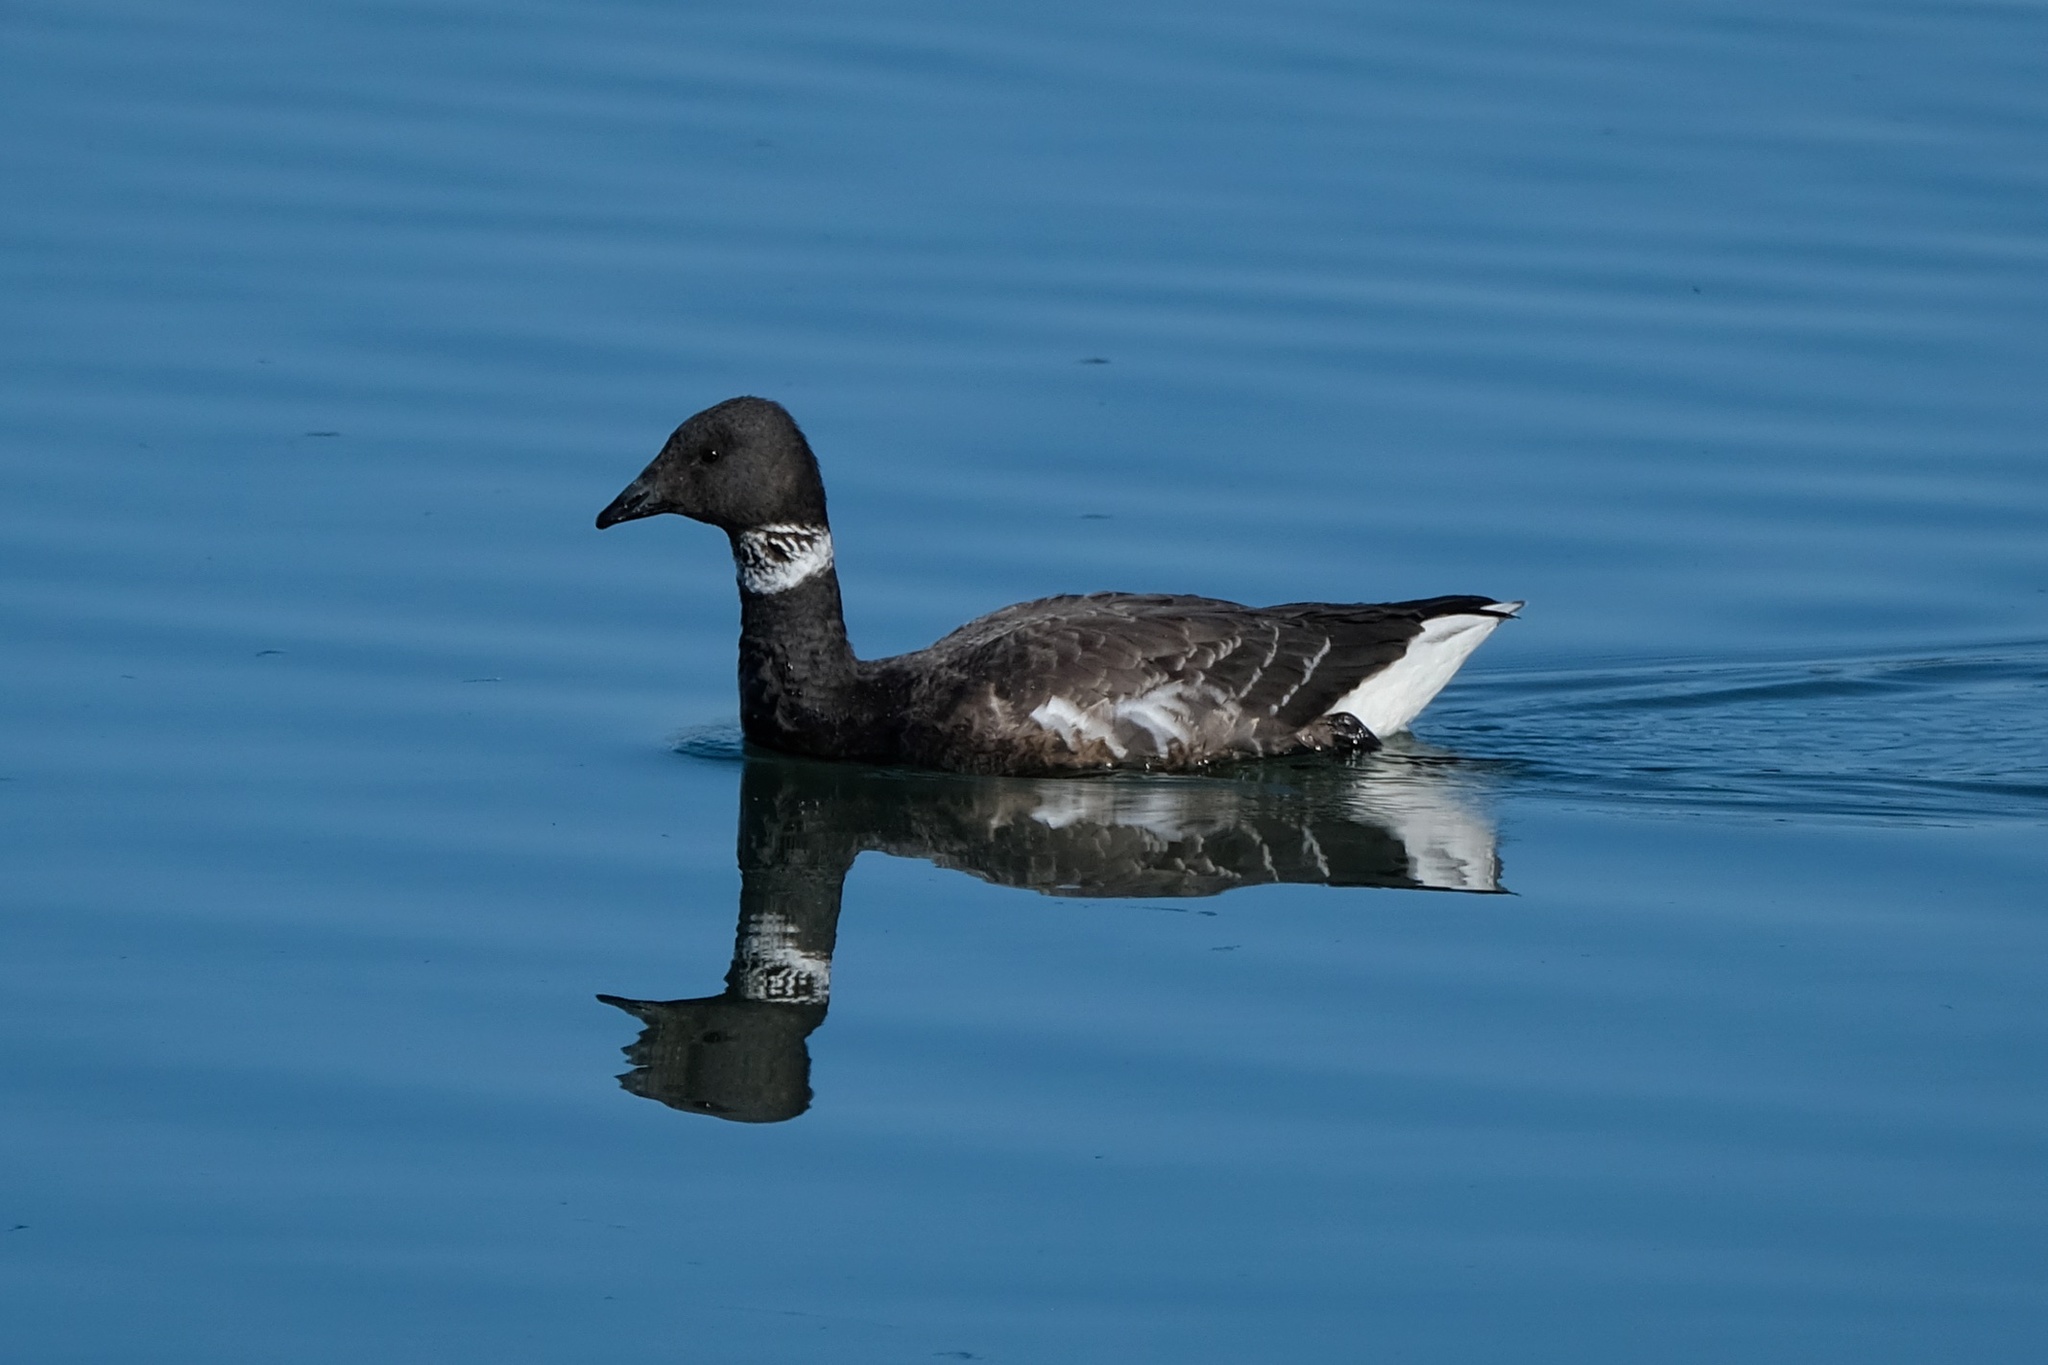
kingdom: Animalia
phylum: Chordata
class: Aves
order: Anseriformes
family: Anatidae
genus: Branta
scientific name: Branta bernicla
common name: Brant goose
